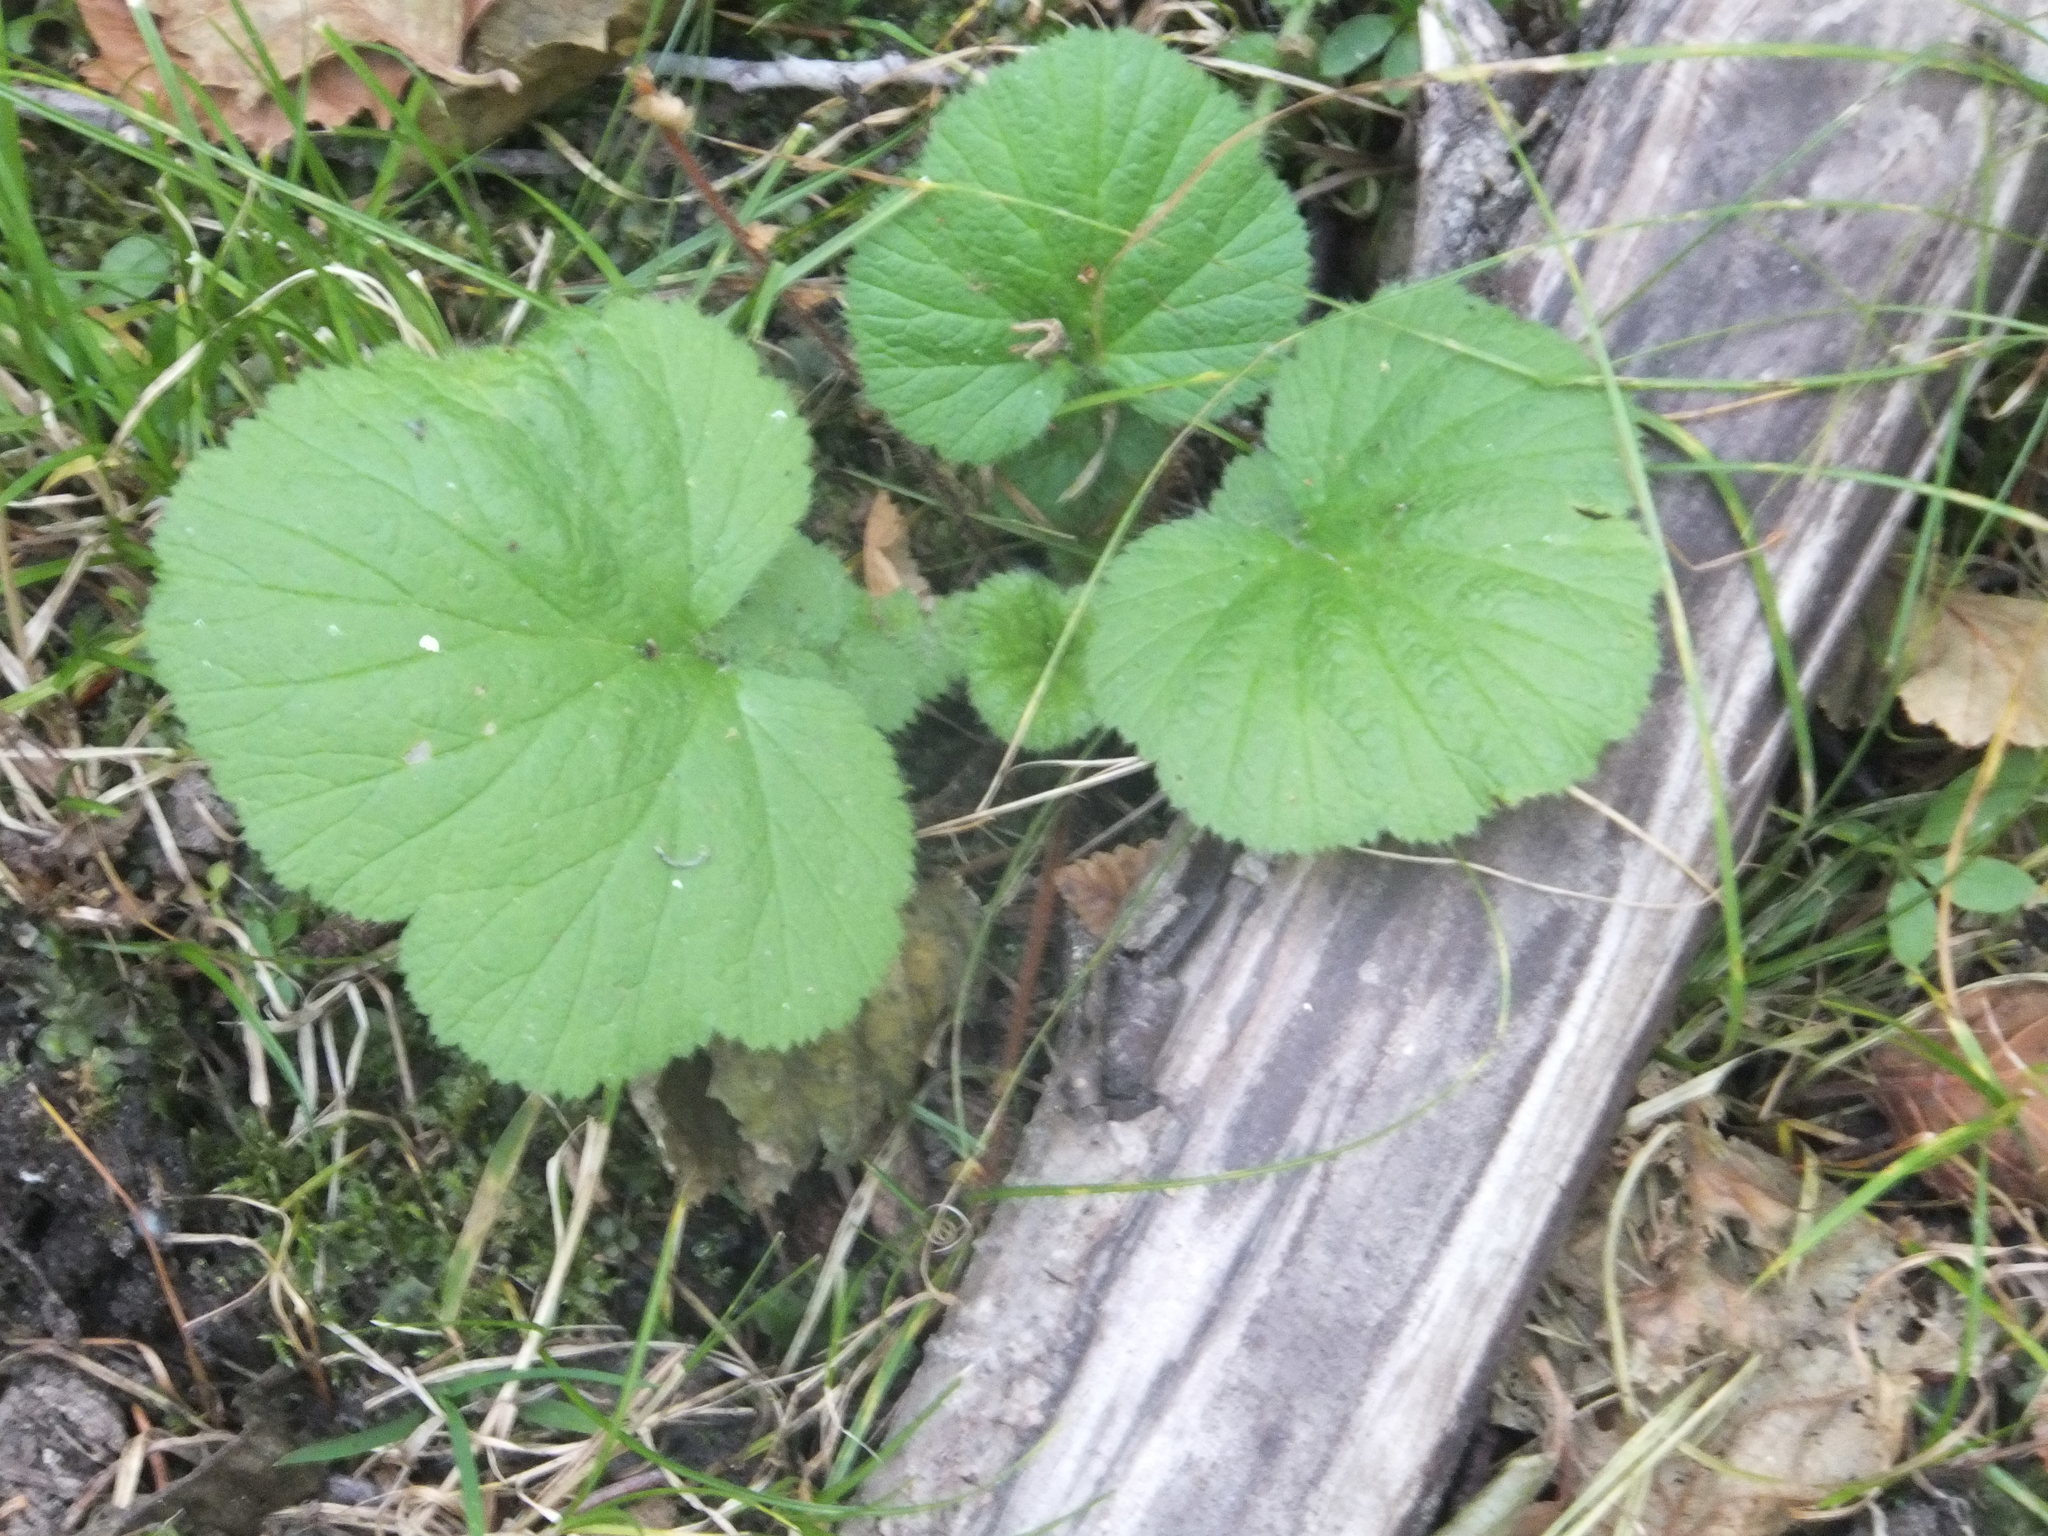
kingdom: Plantae
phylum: Tracheophyta
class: Magnoliopsida
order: Rosales
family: Rosaceae
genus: Geum
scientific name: Geum macrophyllum
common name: Large-leaved avens
